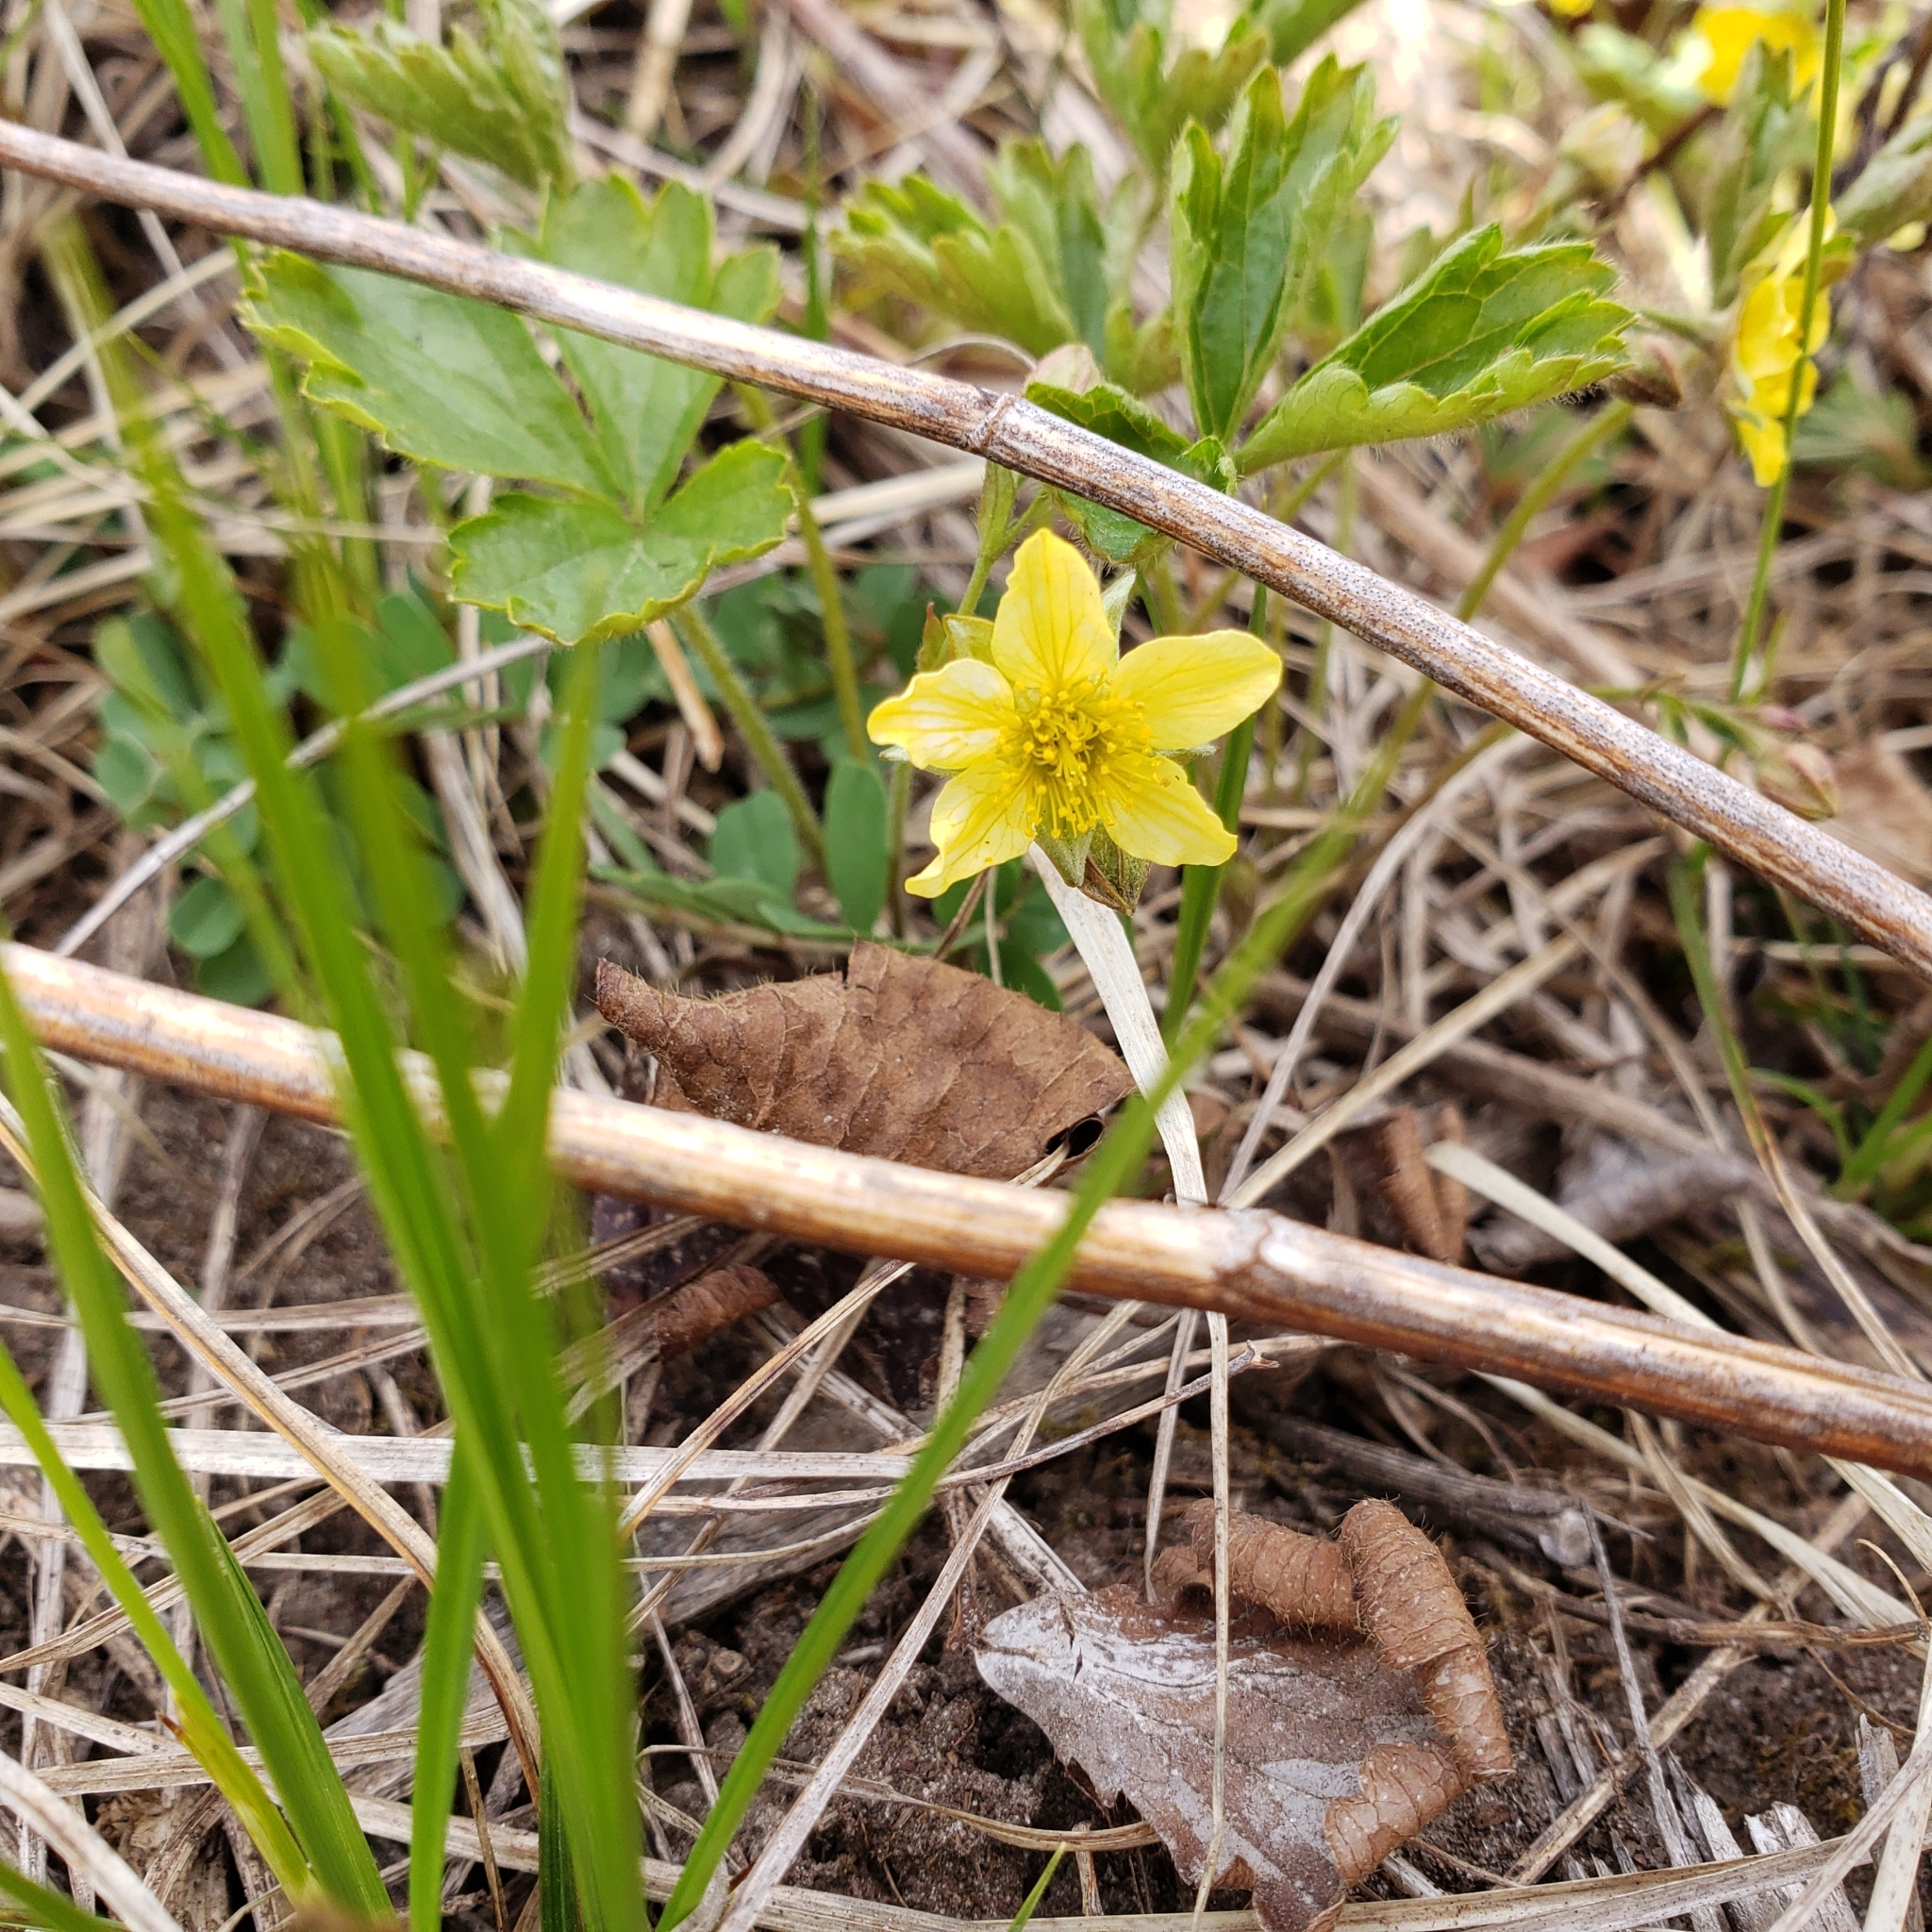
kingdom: Plantae
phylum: Tracheophyta
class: Magnoliopsida
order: Rosales
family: Rosaceae
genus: Geum
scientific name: Geum fragarioides
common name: Appalachian barren strawberry
